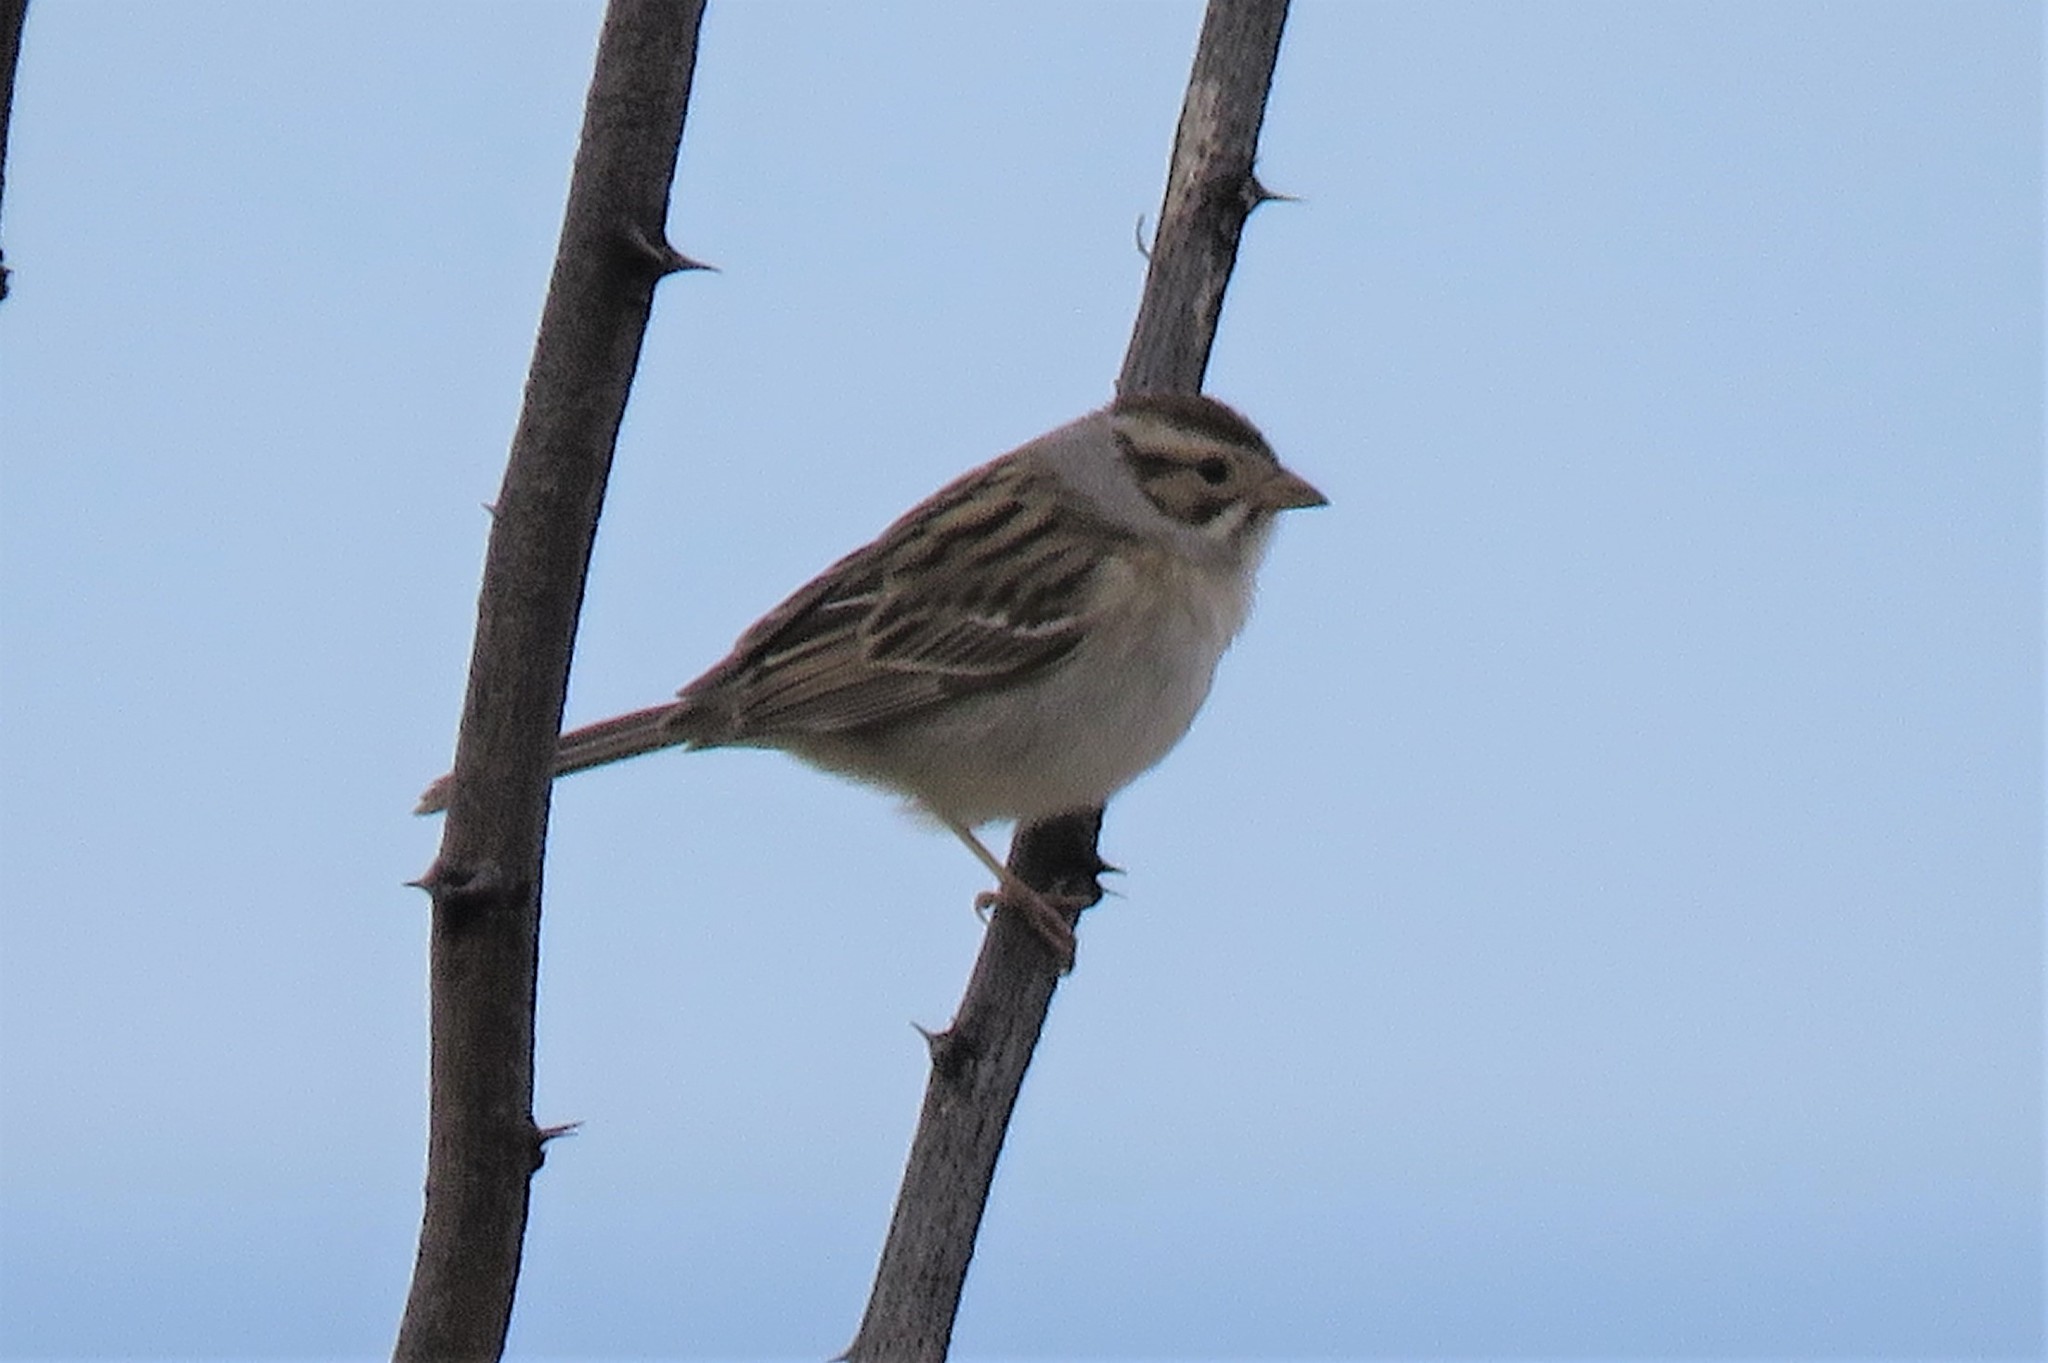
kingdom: Animalia
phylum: Chordata
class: Aves
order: Passeriformes
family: Passerellidae
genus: Spizella
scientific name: Spizella pallida
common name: Clay-colored sparrow
